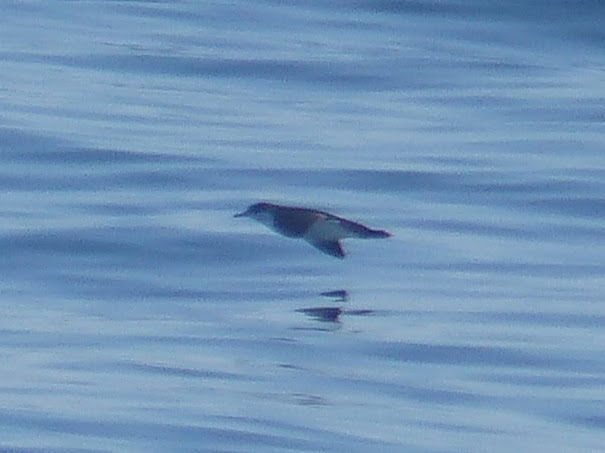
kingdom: Animalia
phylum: Chordata
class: Aves
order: Procellariiformes
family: Procellariidae
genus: Puffinus
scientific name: Puffinus lherminieri
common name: Audubon's shearwater
